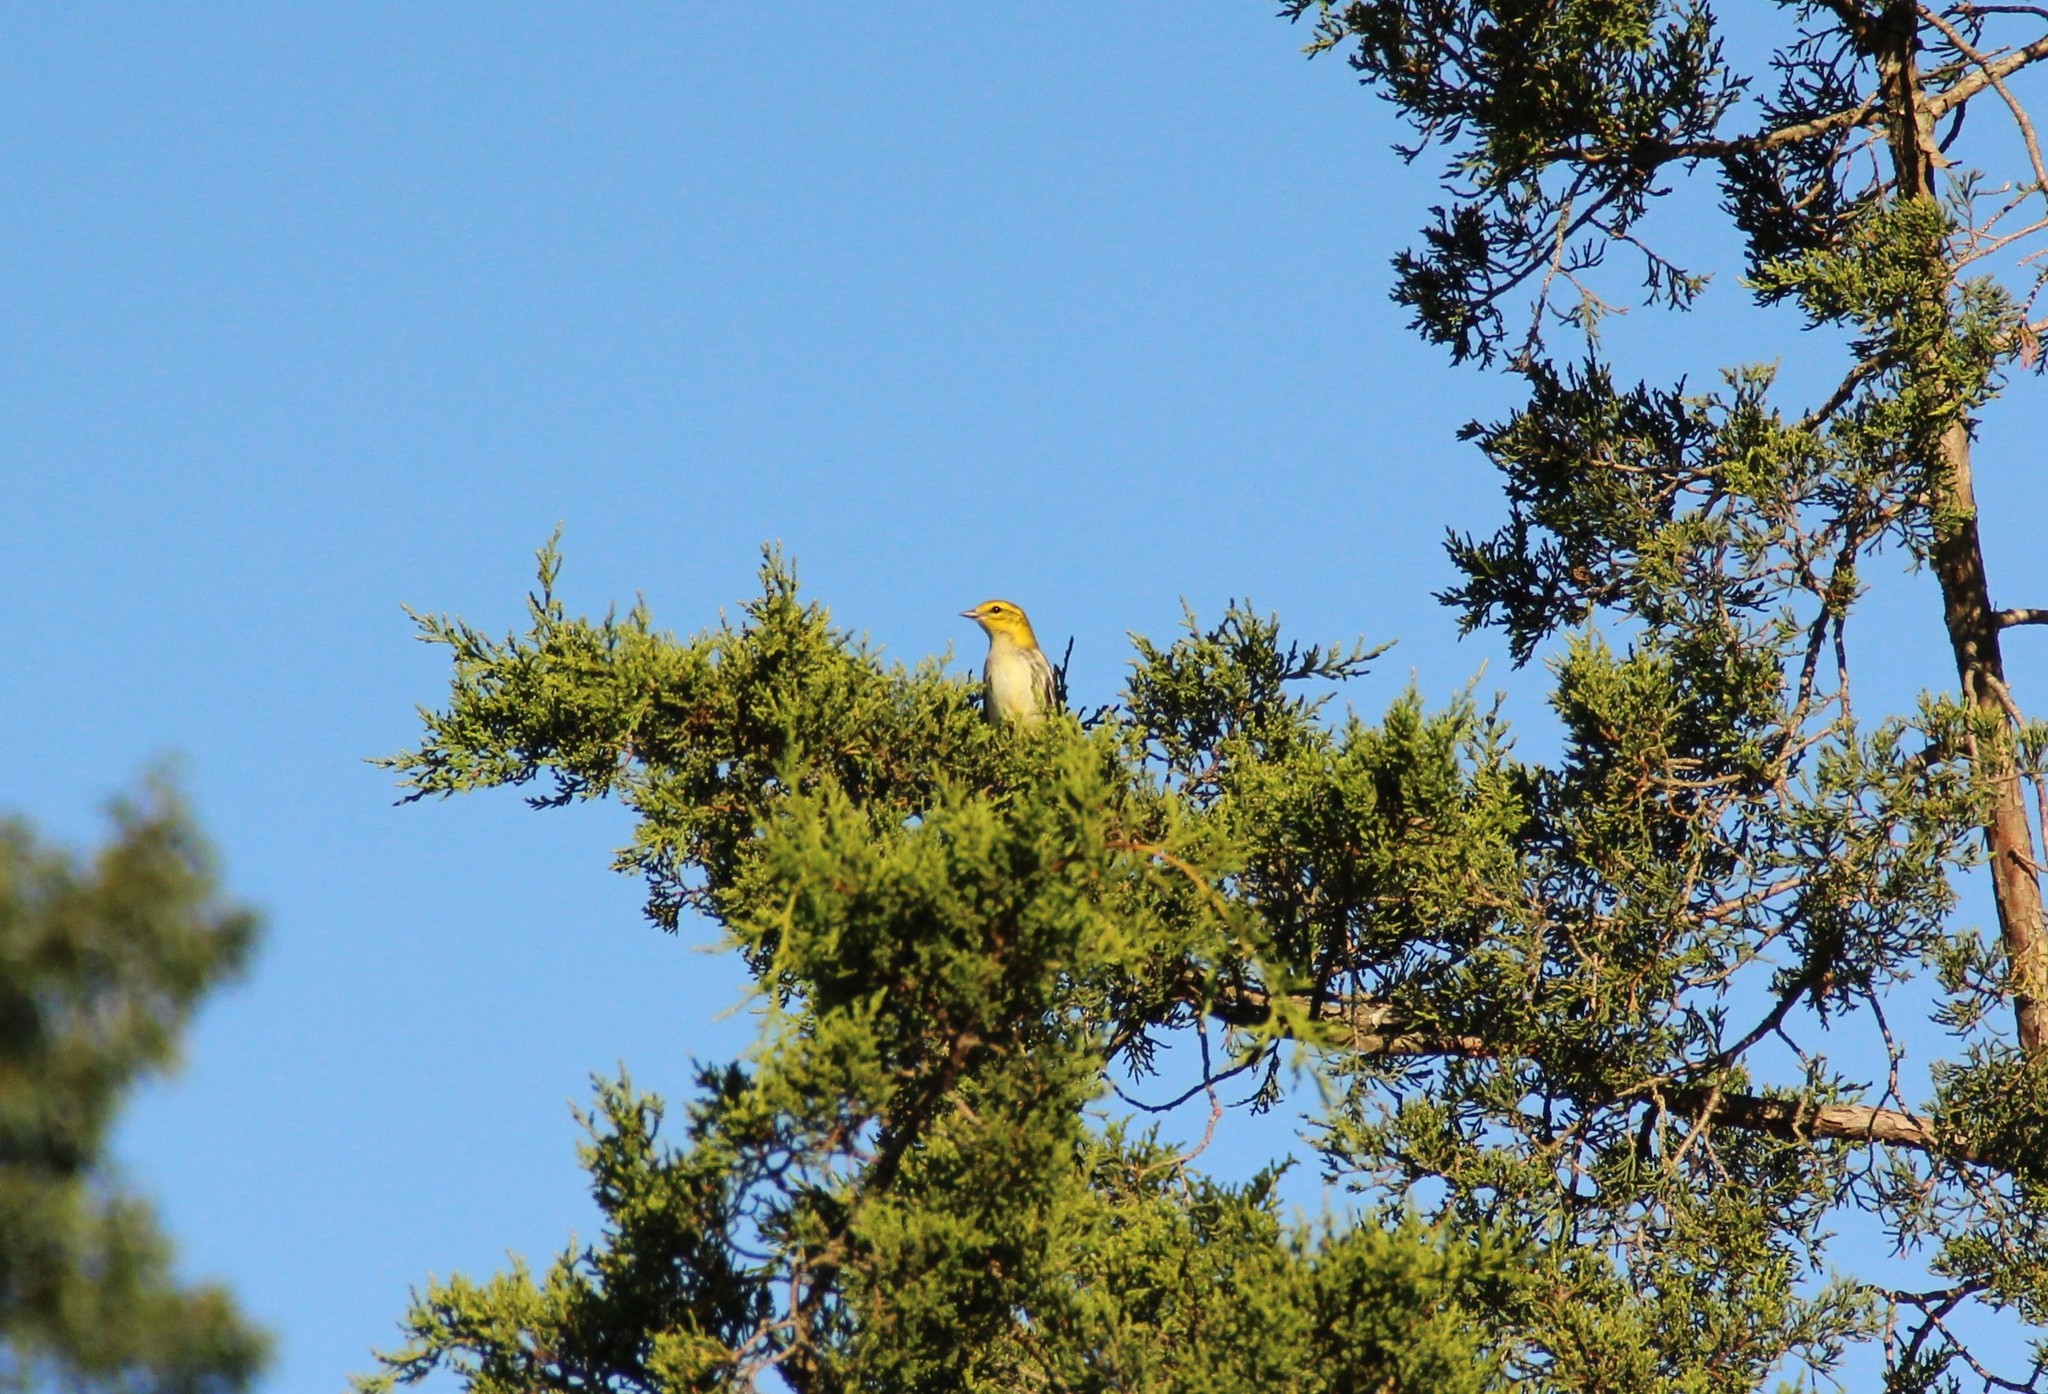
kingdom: Animalia
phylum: Chordata
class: Aves
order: Passeriformes
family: Parulidae
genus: Setophaga
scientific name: Setophaga virens
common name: Black-throated green warbler
